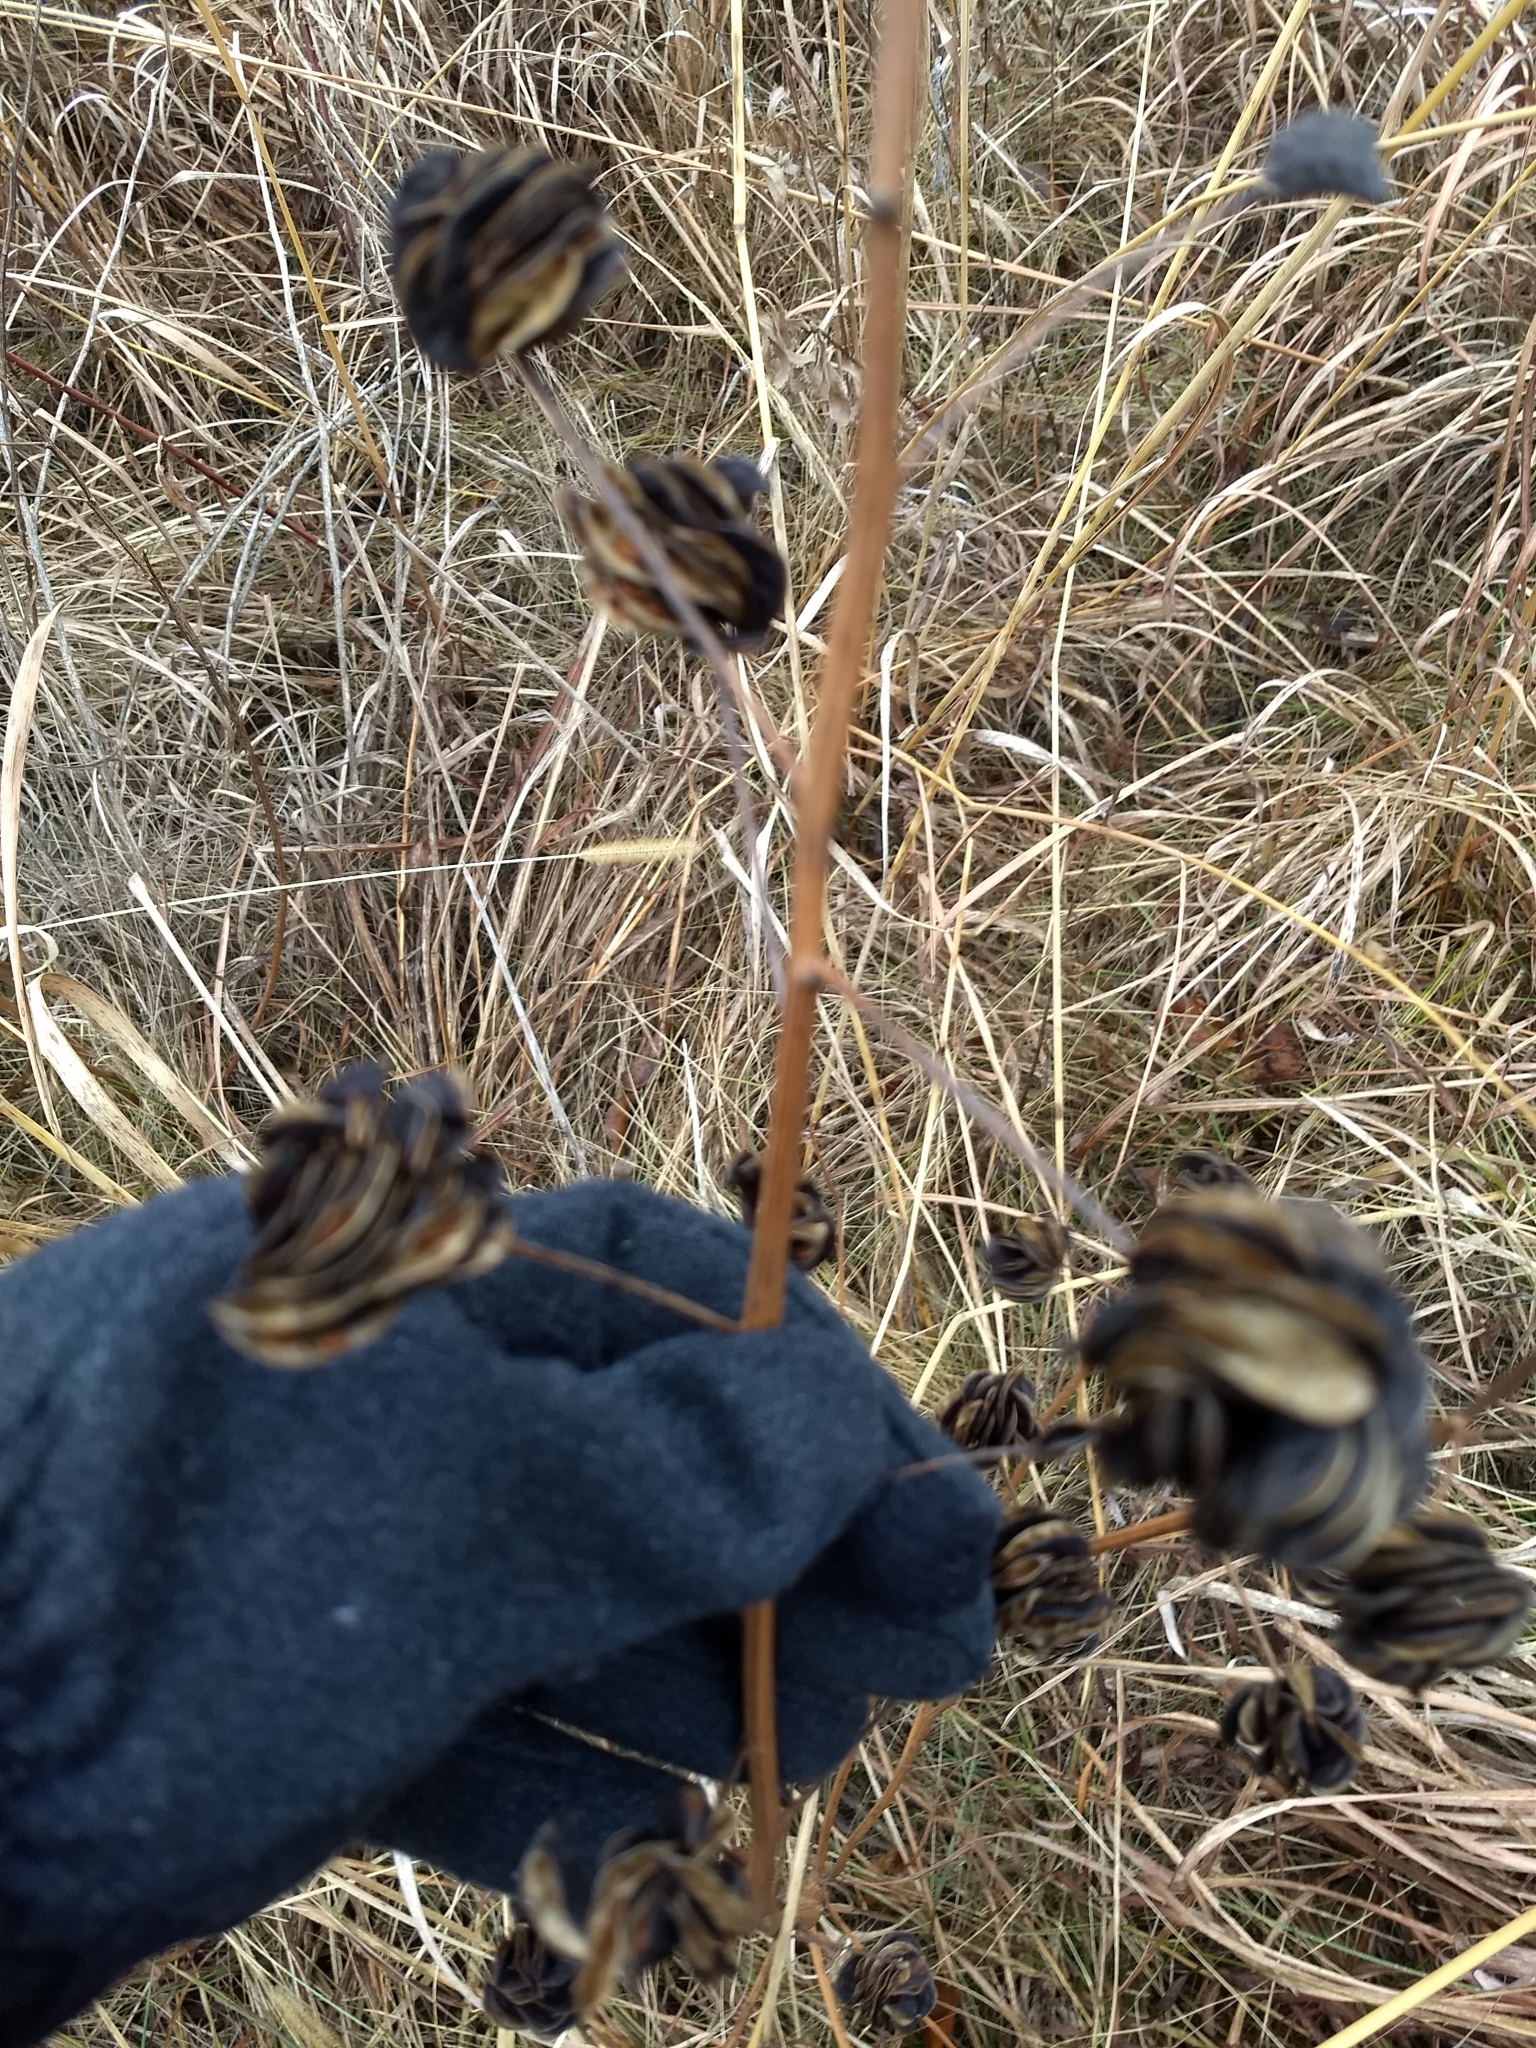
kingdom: Plantae
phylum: Tracheophyta
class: Magnoliopsida
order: Fabales
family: Fabaceae
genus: Desmanthus
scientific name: Desmanthus illinoensis
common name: Illinois bundle-flower
